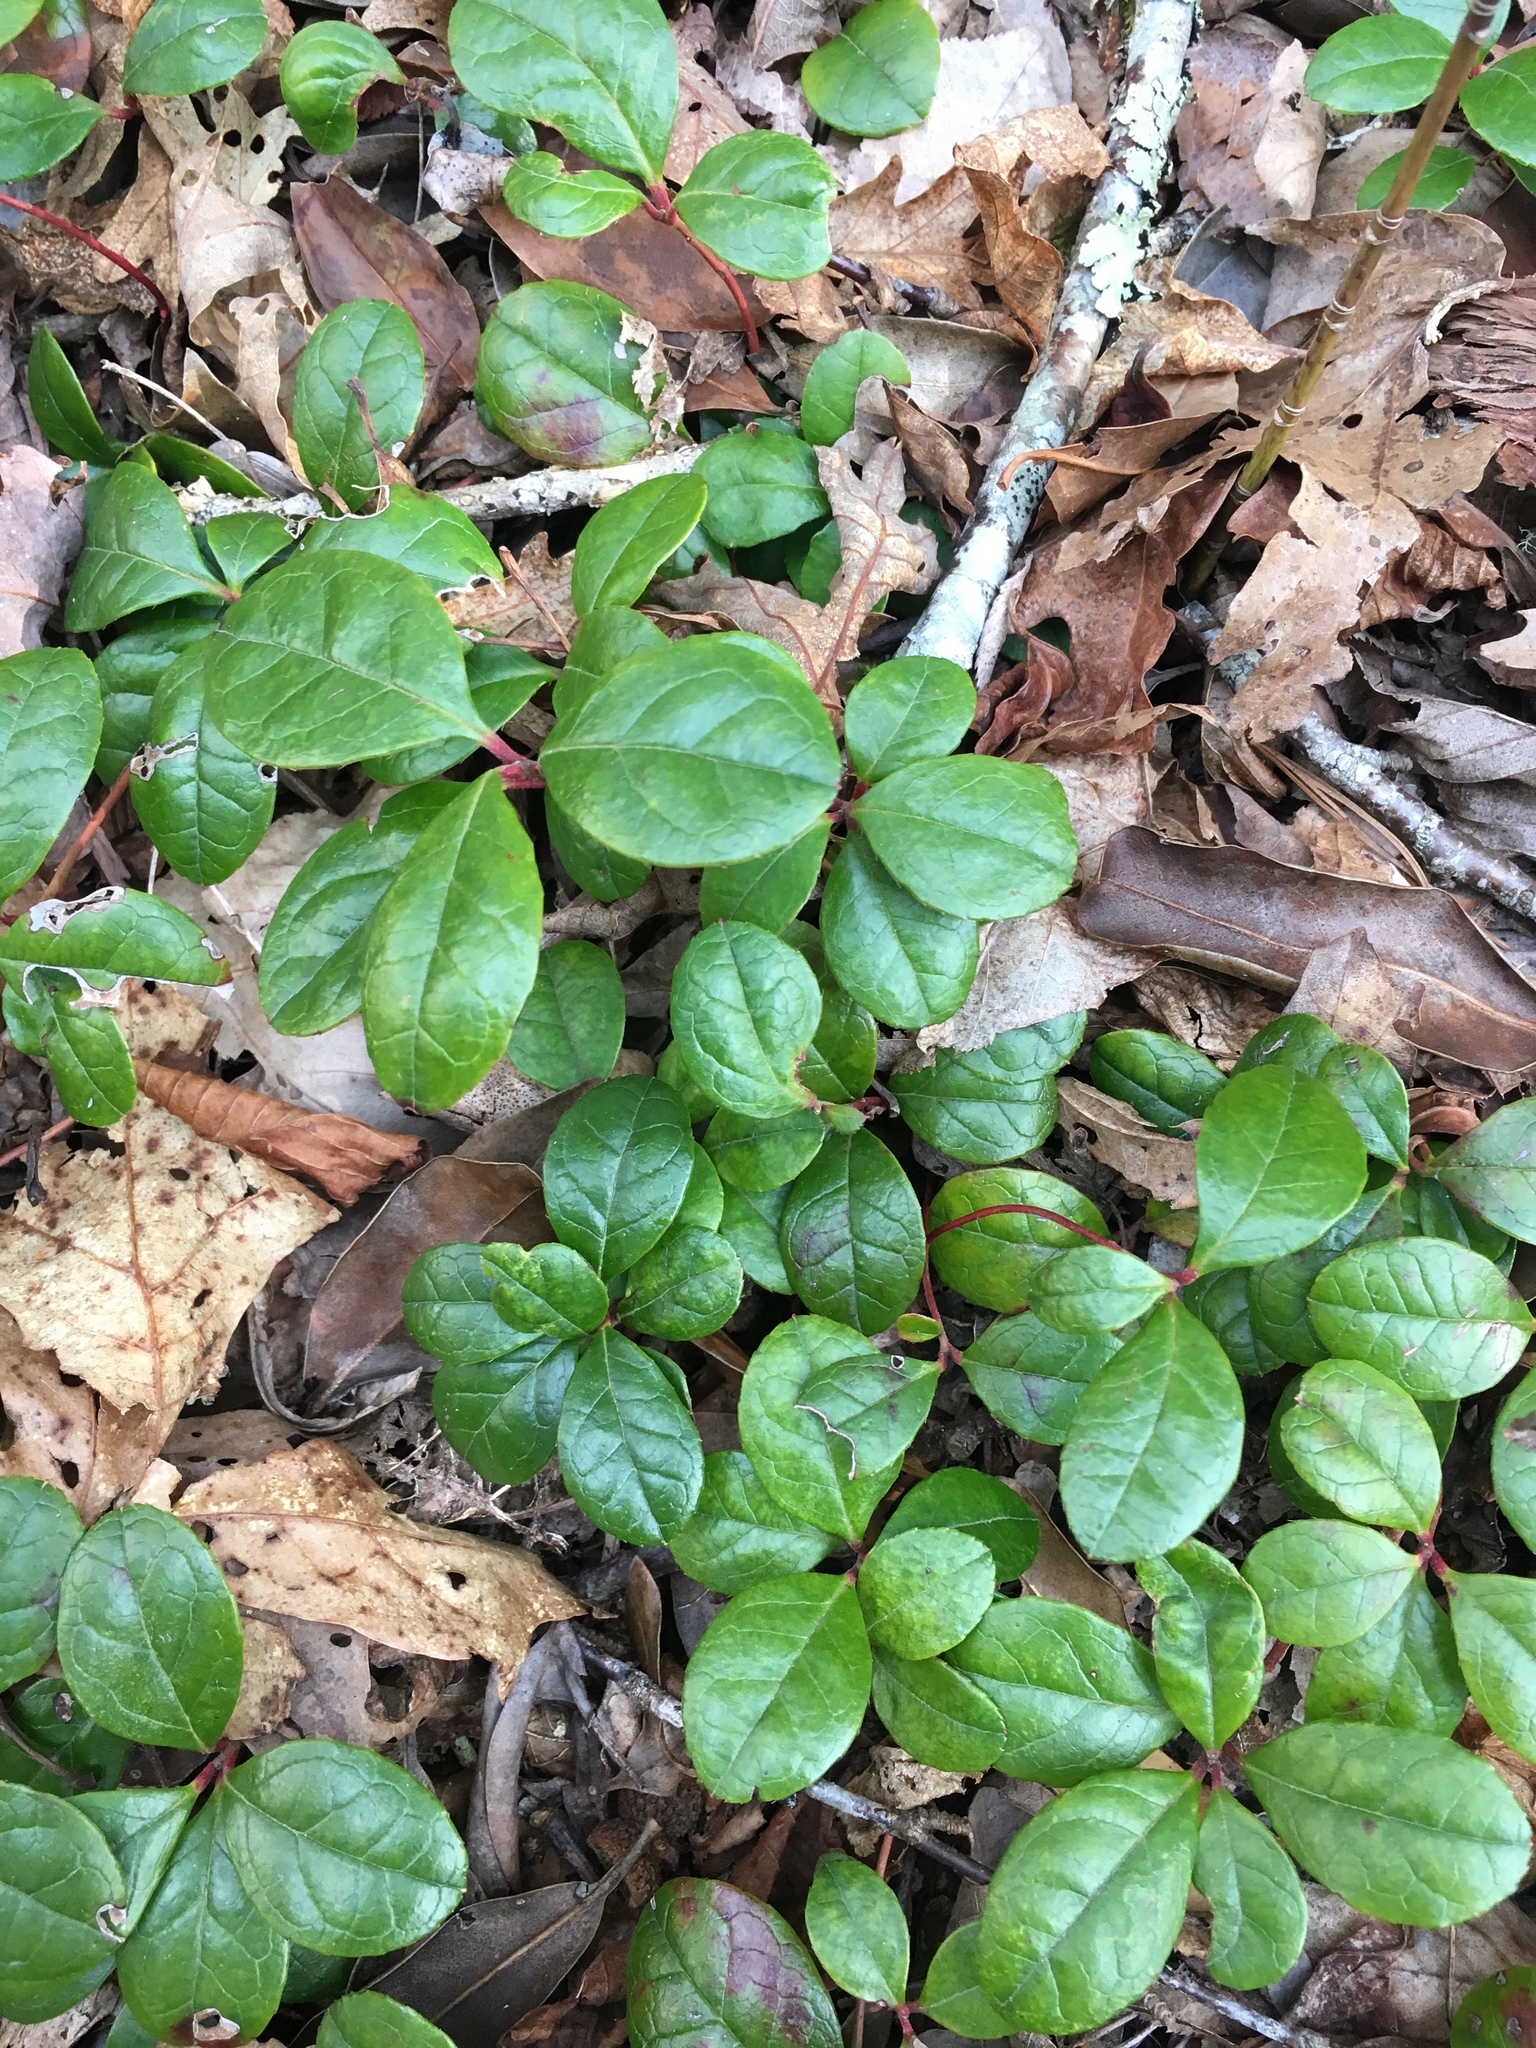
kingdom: Plantae
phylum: Tracheophyta
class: Magnoliopsida
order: Ericales
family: Ericaceae
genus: Gaultheria
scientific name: Gaultheria procumbens
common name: Checkerberry
